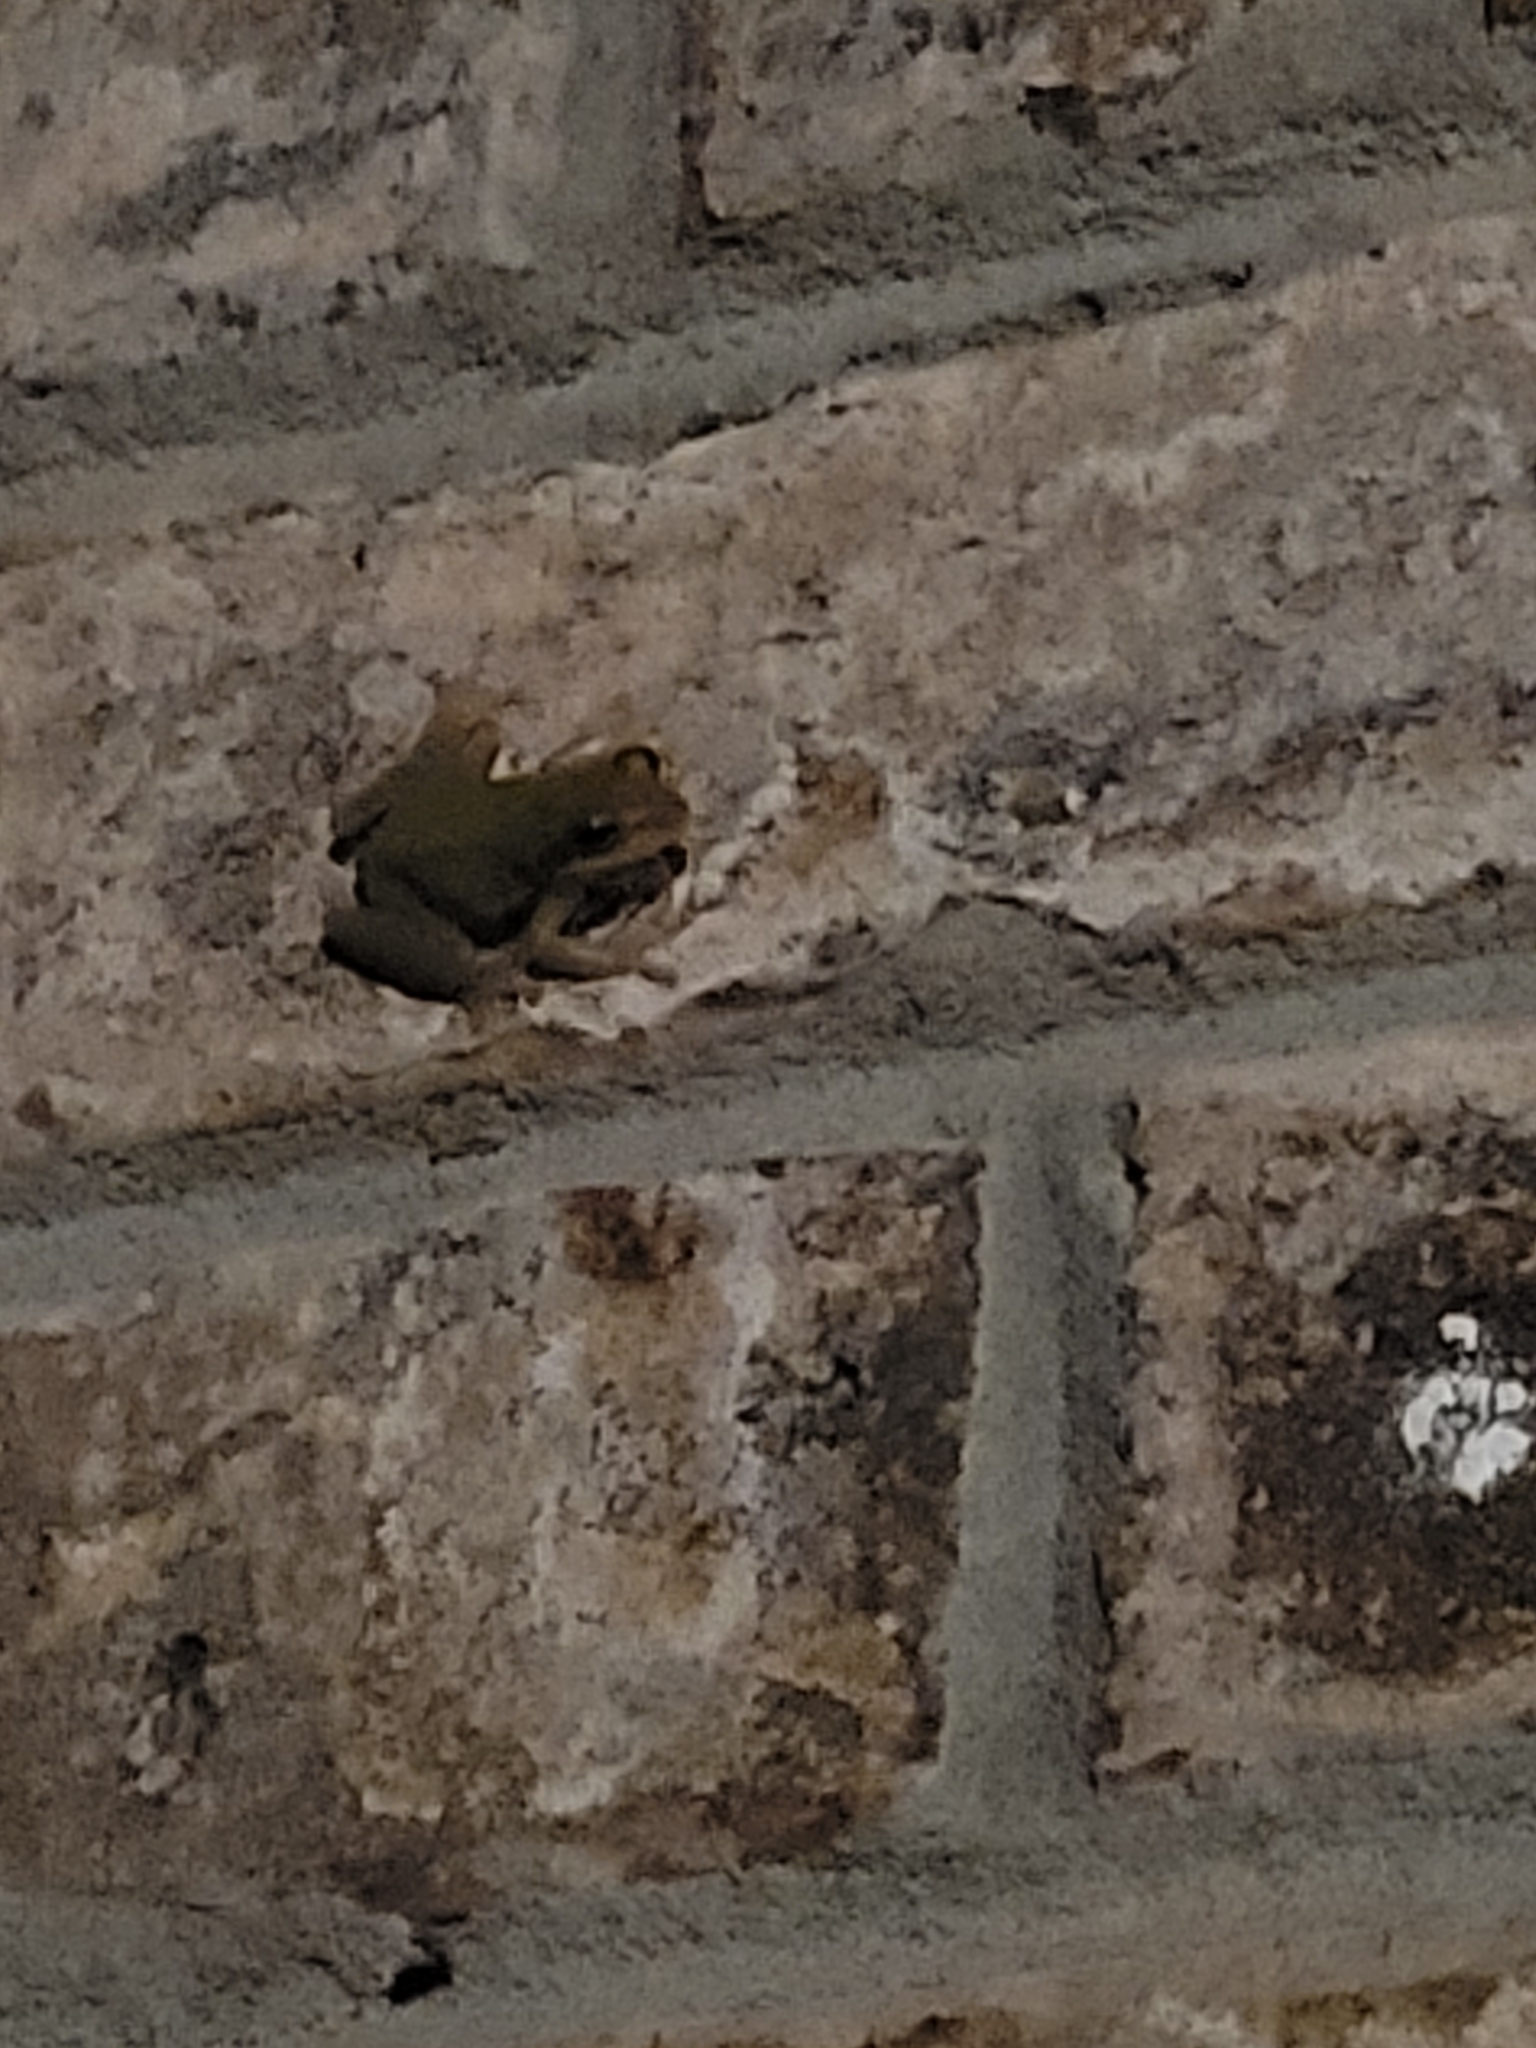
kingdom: Animalia
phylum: Chordata
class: Amphibia
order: Anura
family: Hylidae
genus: Dryophytes
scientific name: Dryophytes squirellus
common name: Squirrel treefrog
